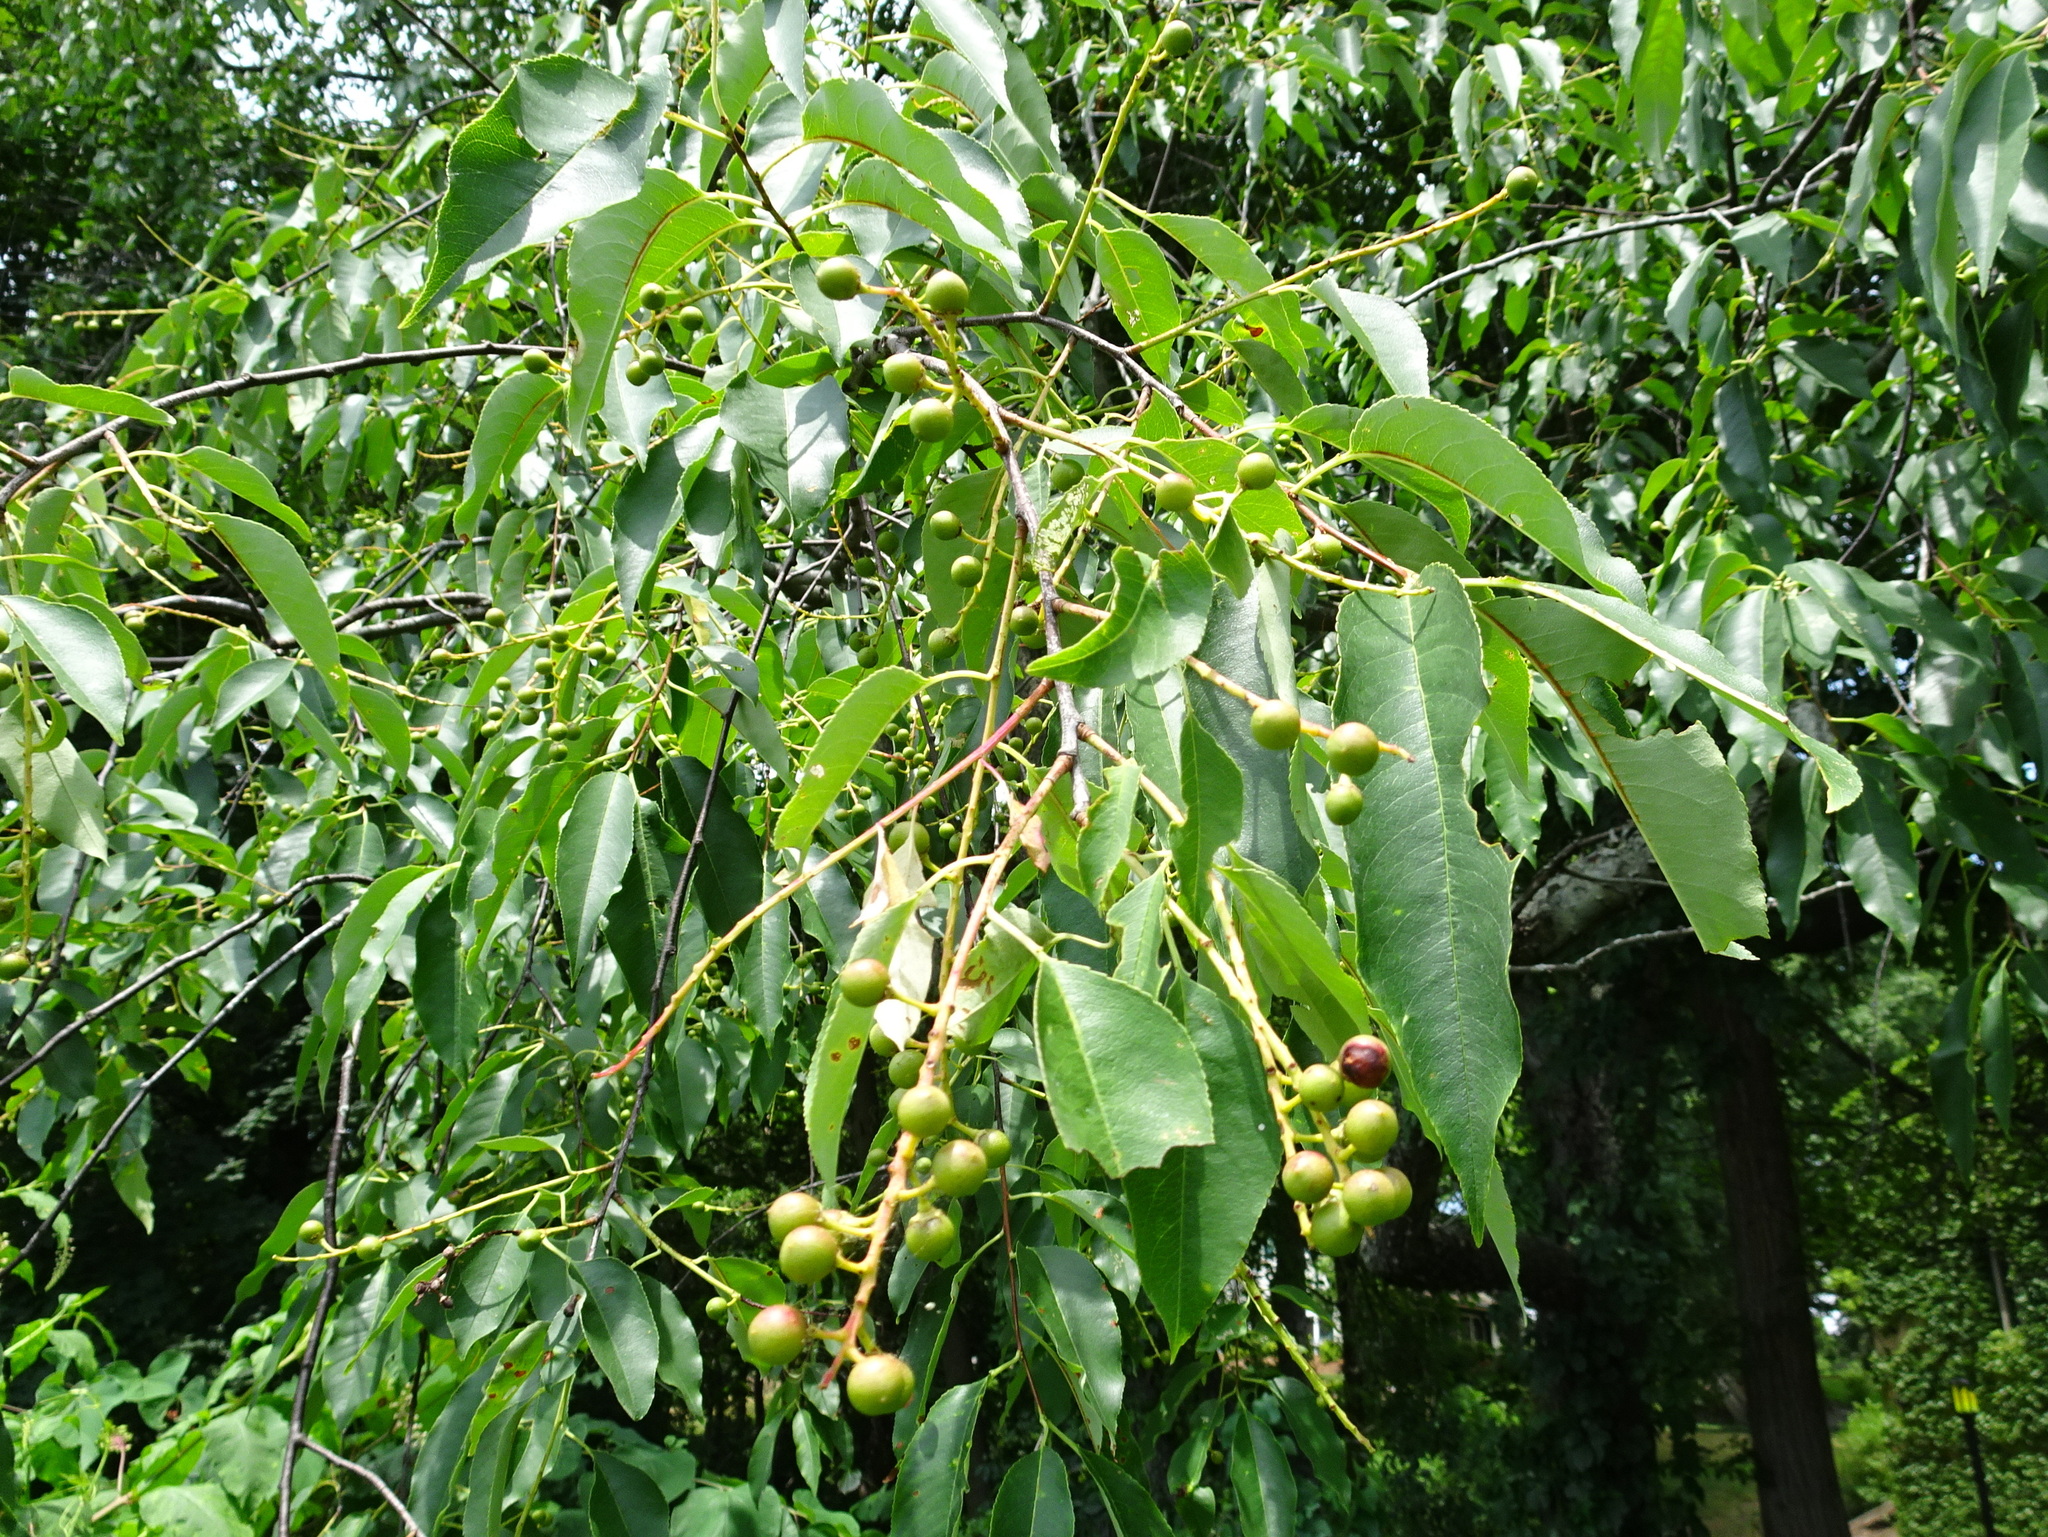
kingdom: Plantae
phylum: Tracheophyta
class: Magnoliopsida
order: Rosales
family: Rosaceae
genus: Prunus
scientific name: Prunus serotina
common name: Black cherry
